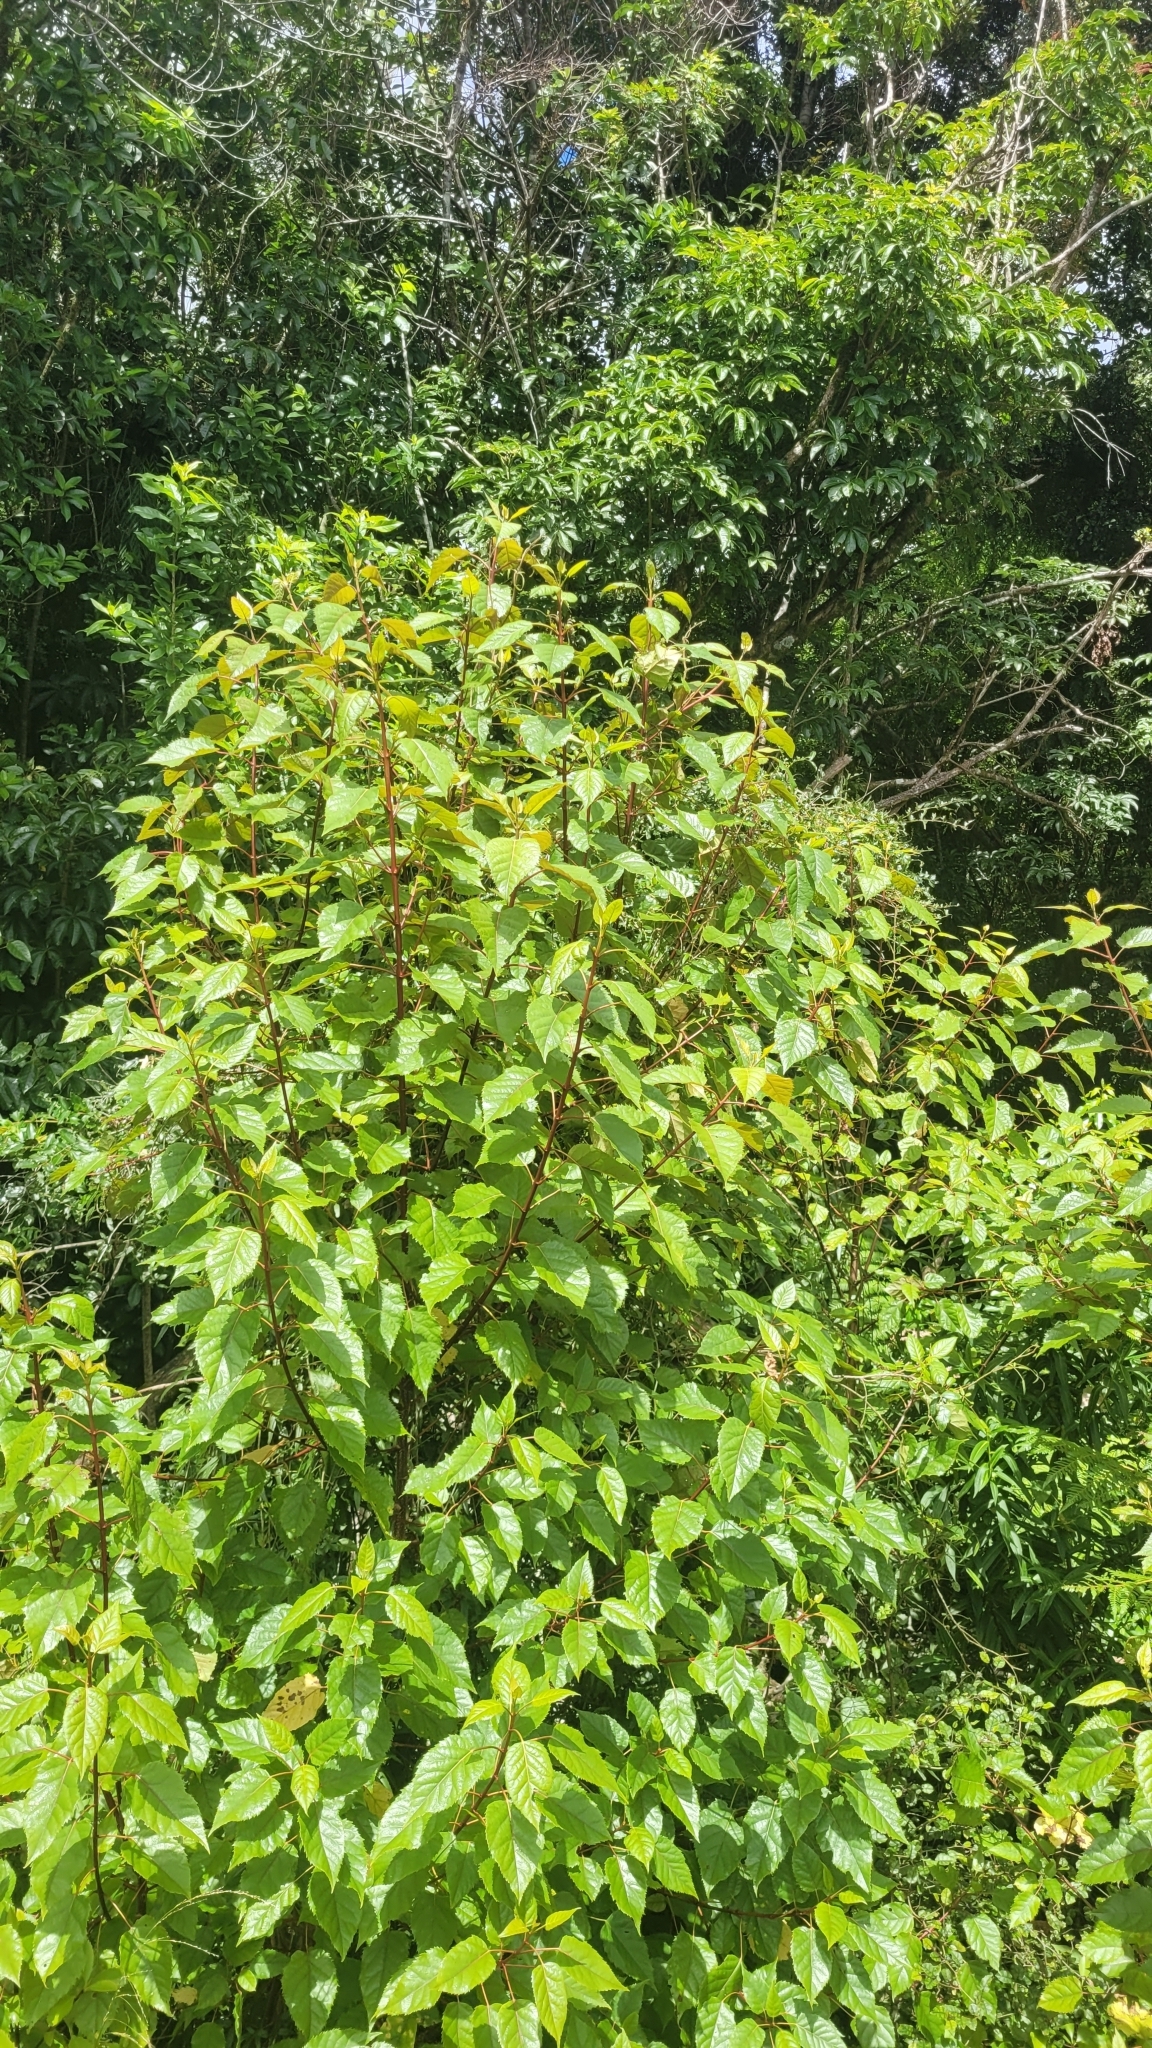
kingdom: Plantae
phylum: Tracheophyta
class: Magnoliopsida
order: Oxalidales
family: Elaeocarpaceae
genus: Aristotelia
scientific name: Aristotelia serrata
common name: New zealand wineberry
